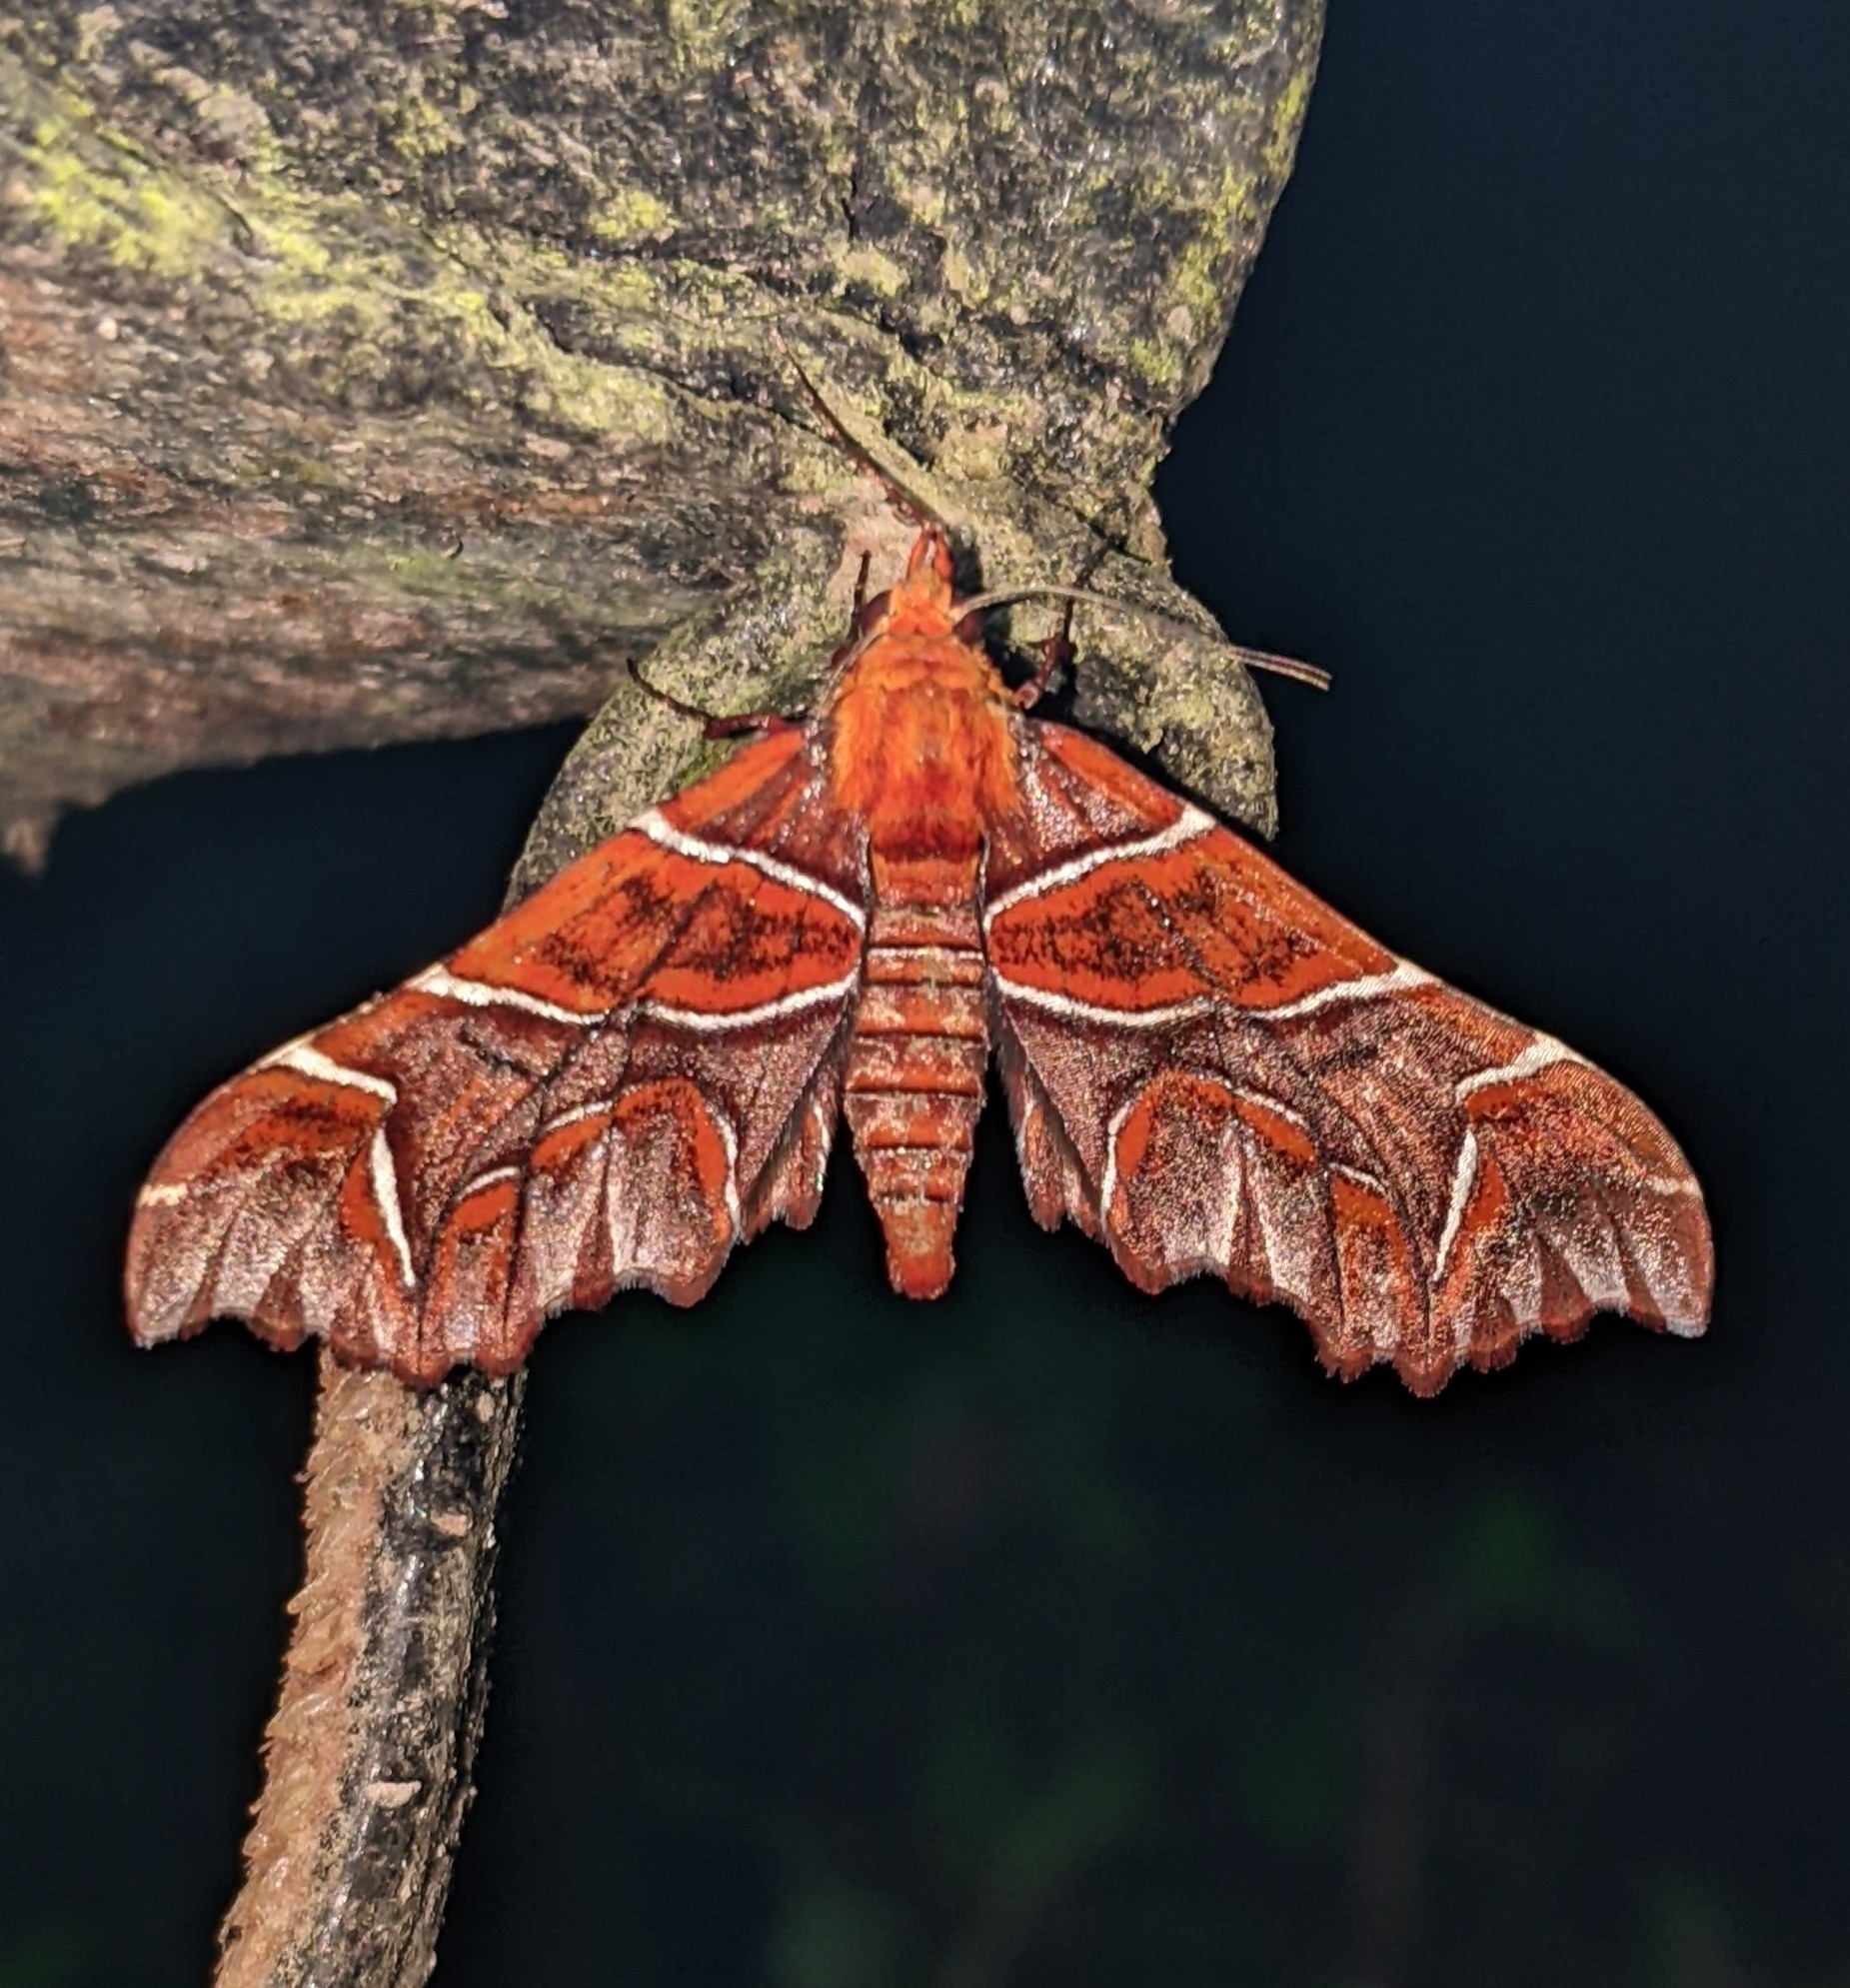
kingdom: Animalia
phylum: Arthropoda
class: Insecta
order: Lepidoptera
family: Geometridae
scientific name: Geometridae
